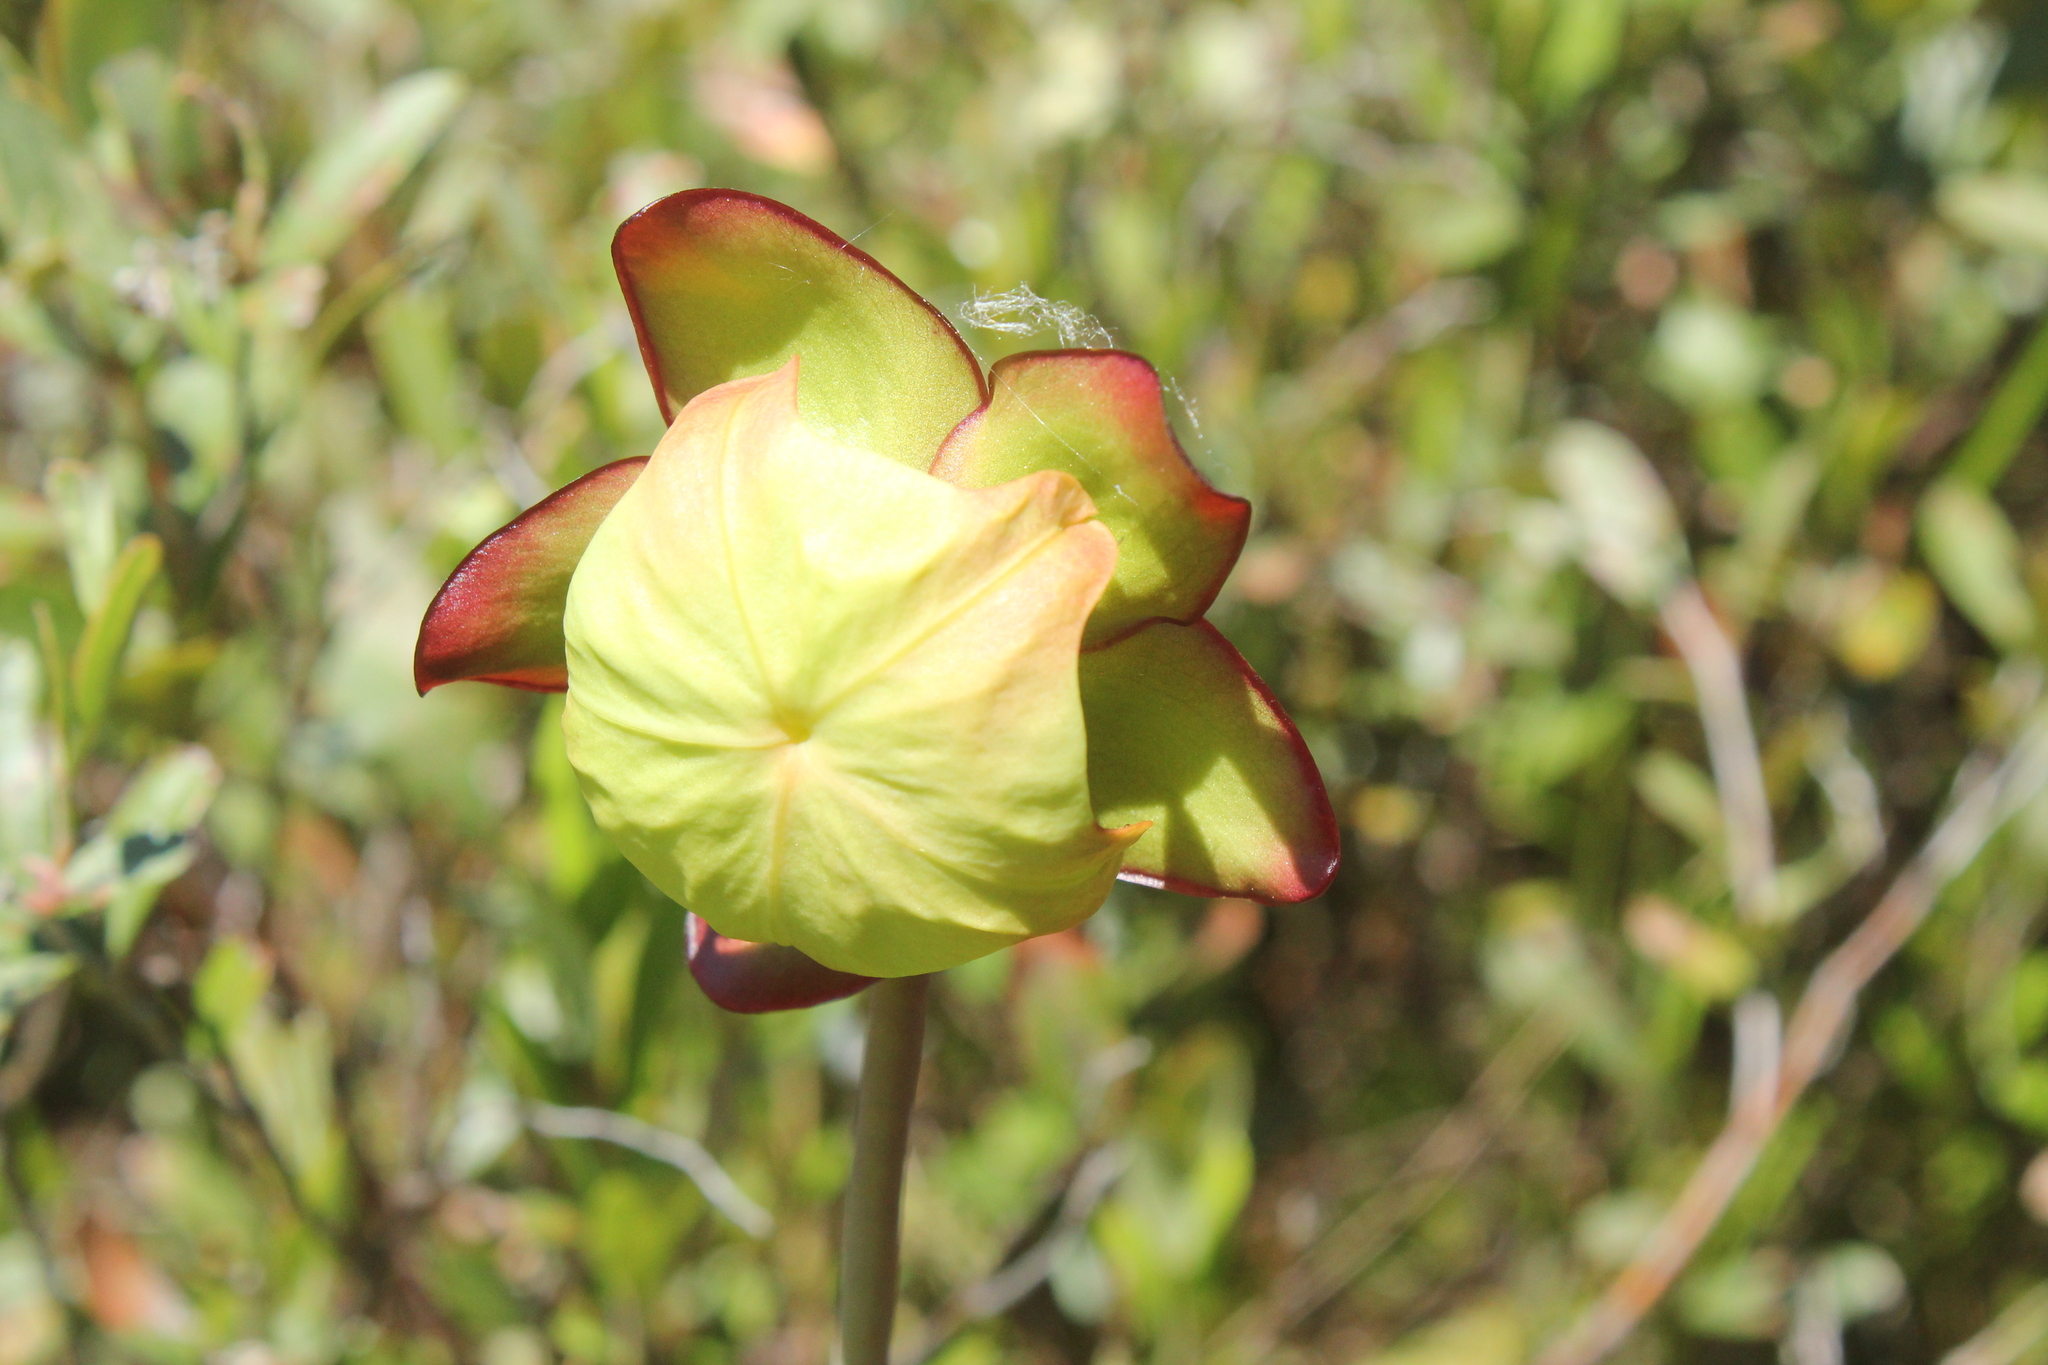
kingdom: Plantae
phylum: Tracheophyta
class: Magnoliopsida
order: Ericales
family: Sarraceniaceae
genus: Sarracenia
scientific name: Sarracenia purpurea
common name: Pitcherplant
